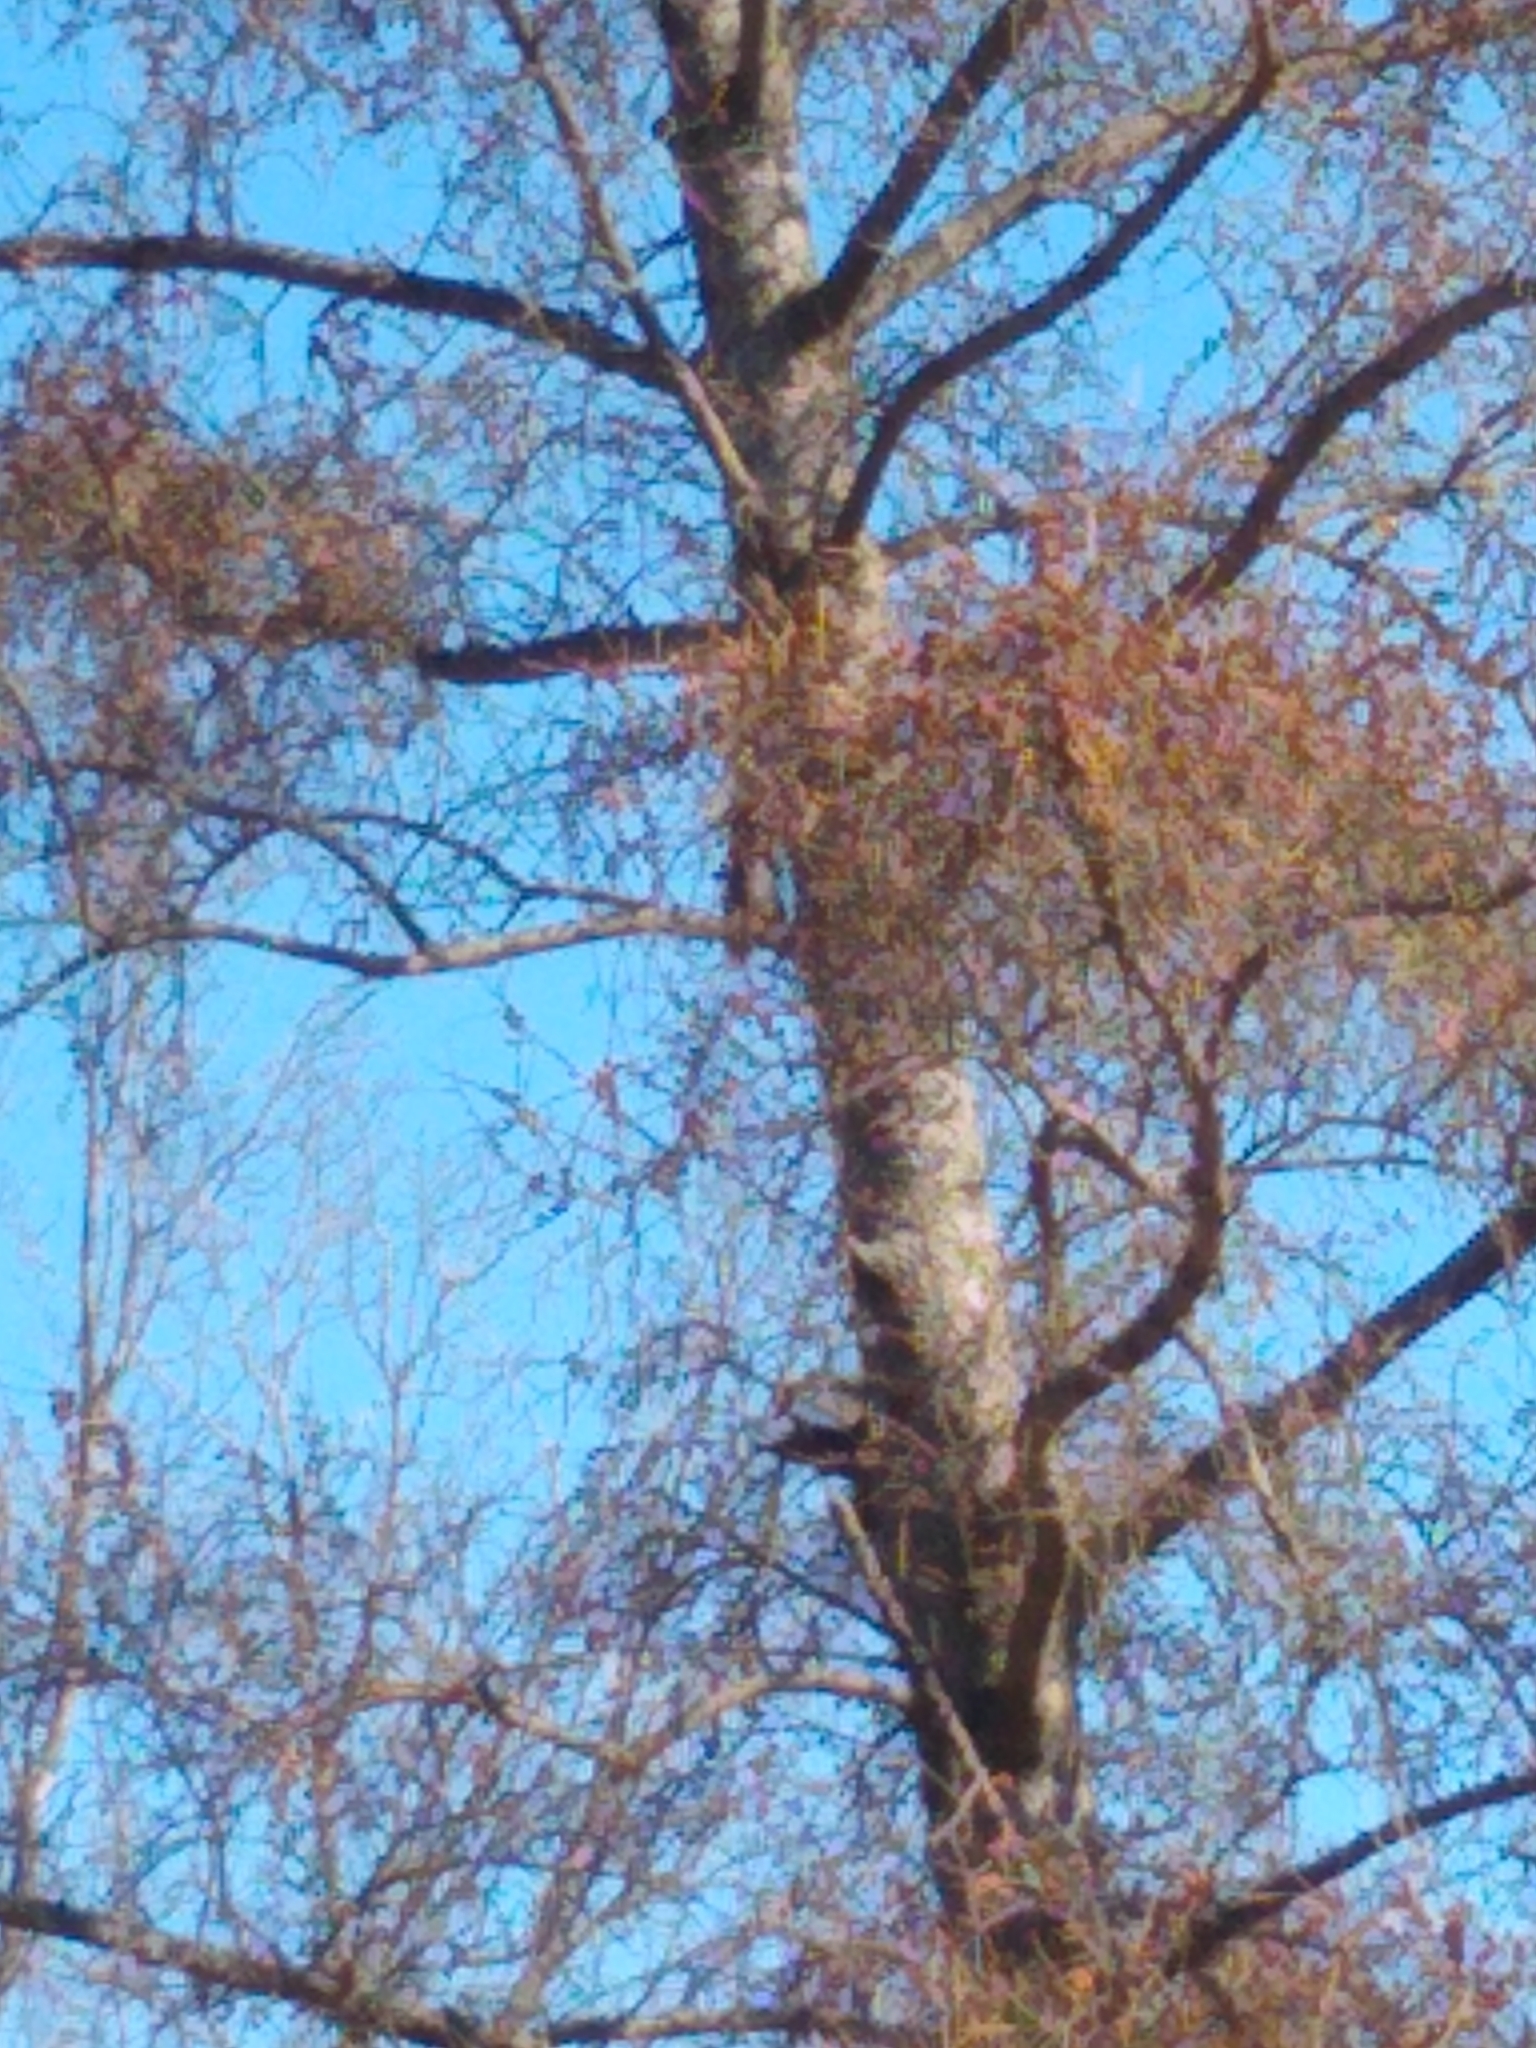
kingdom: Animalia
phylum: Chordata
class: Mammalia
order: Rodentia
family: Sciuridae
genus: Sciurus
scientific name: Sciurus carolinensis
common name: Eastern gray squirrel
